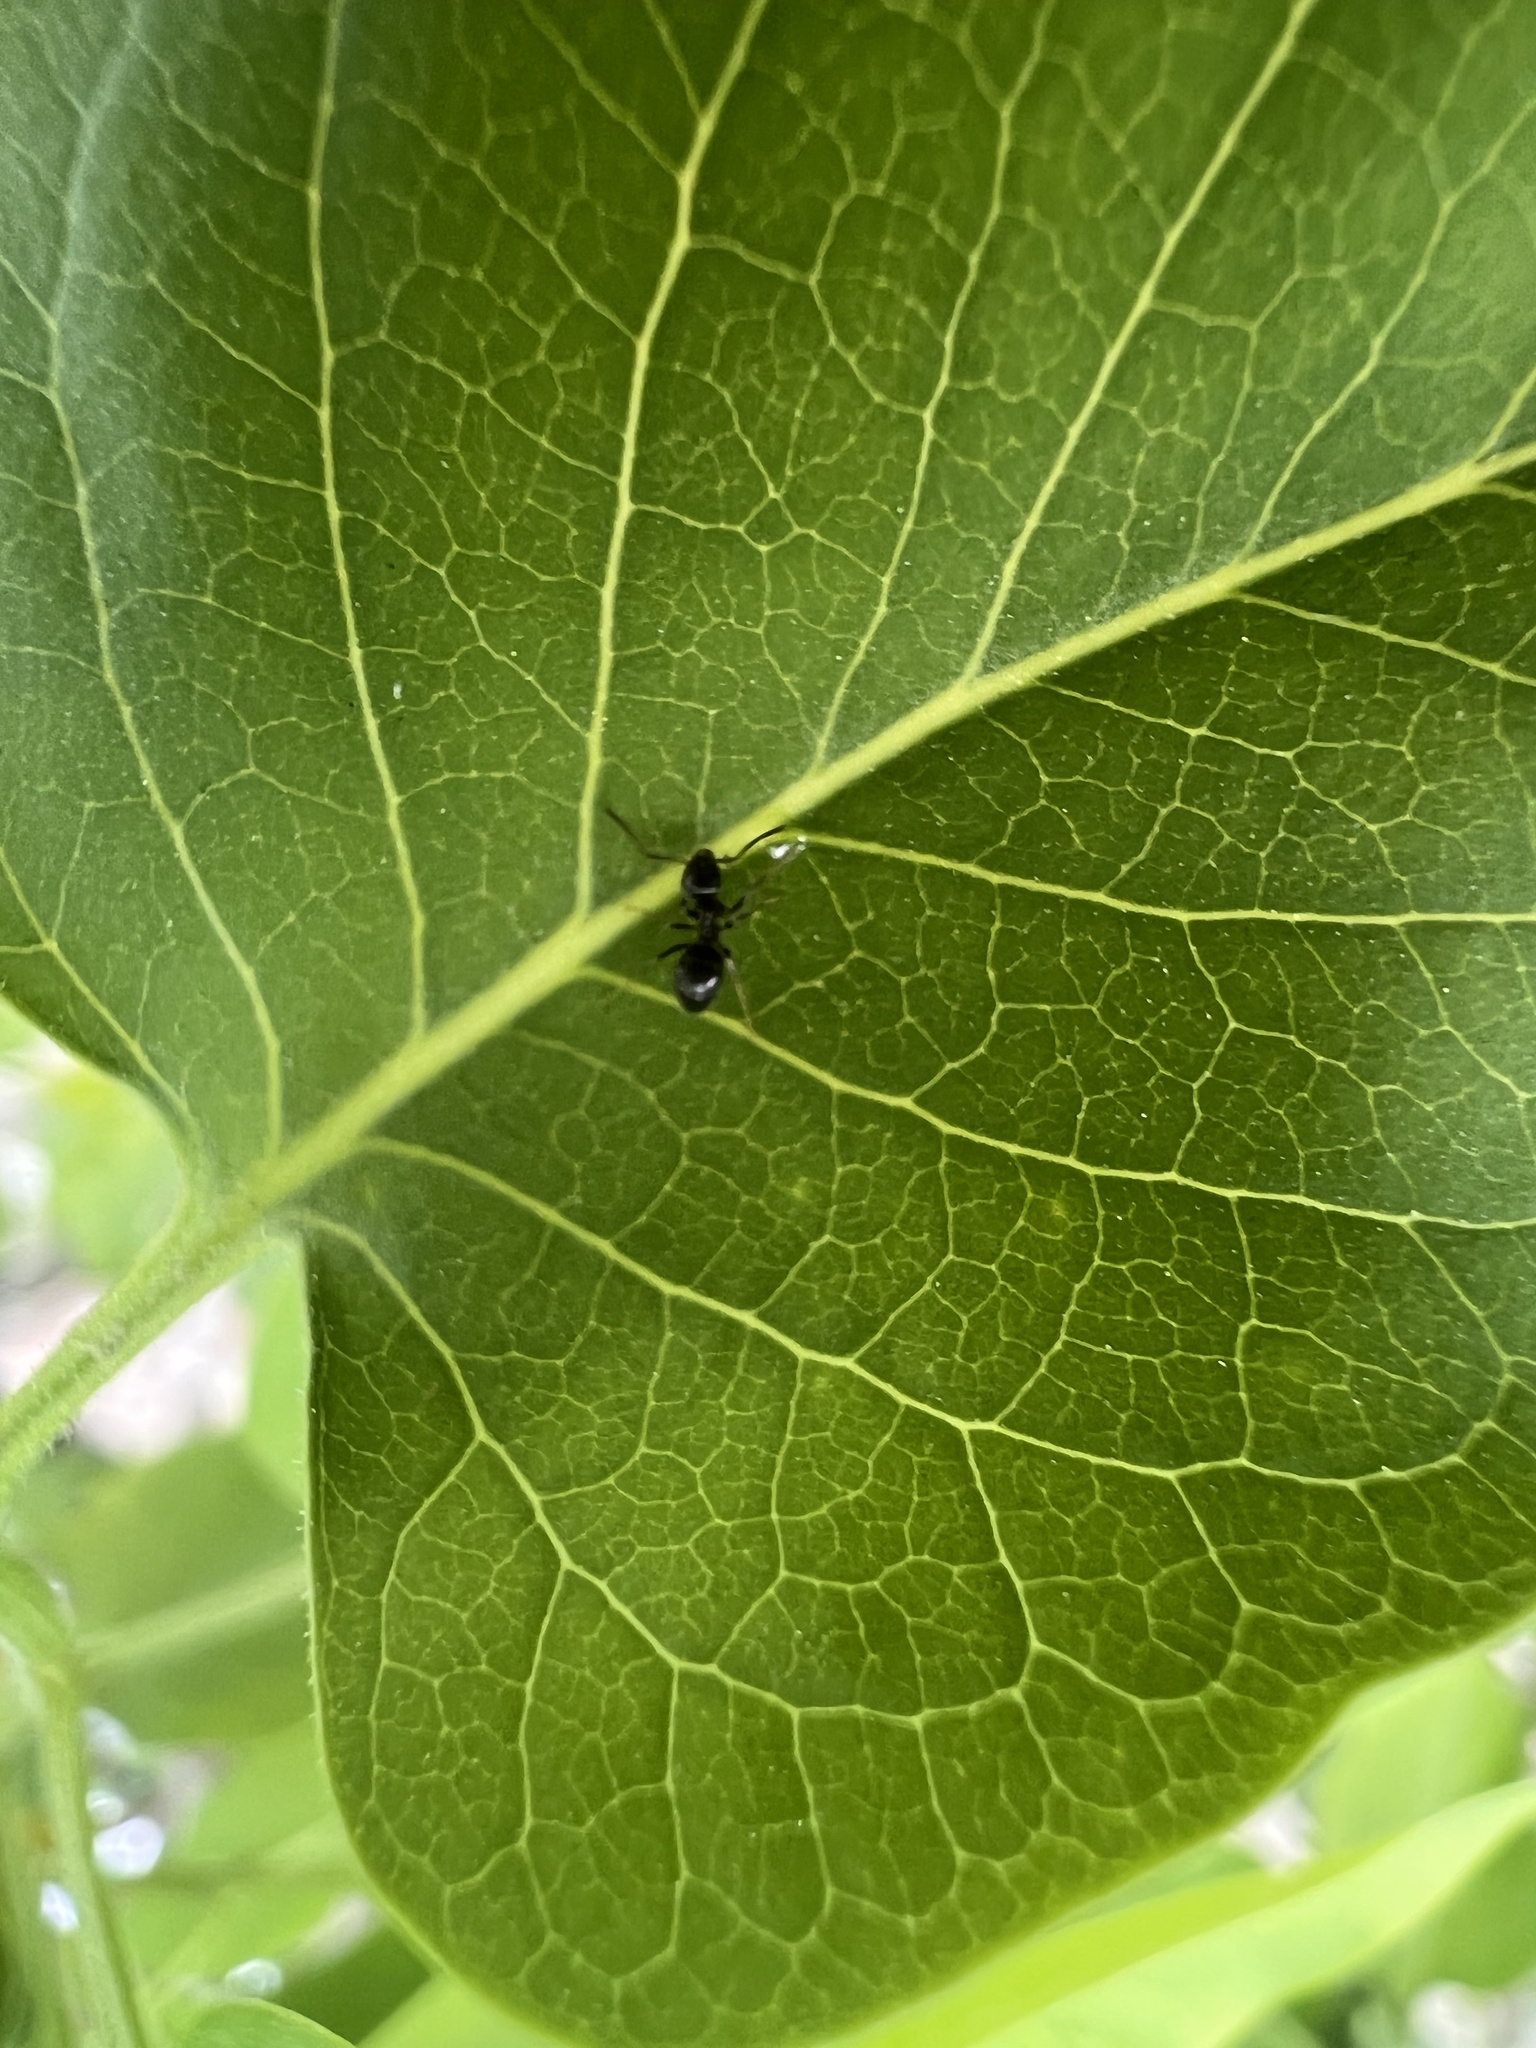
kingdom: Animalia
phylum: Arthropoda
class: Insecta
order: Hymenoptera
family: Formicidae
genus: Tapinoma
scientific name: Tapinoma sessile
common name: Odorous house ant
